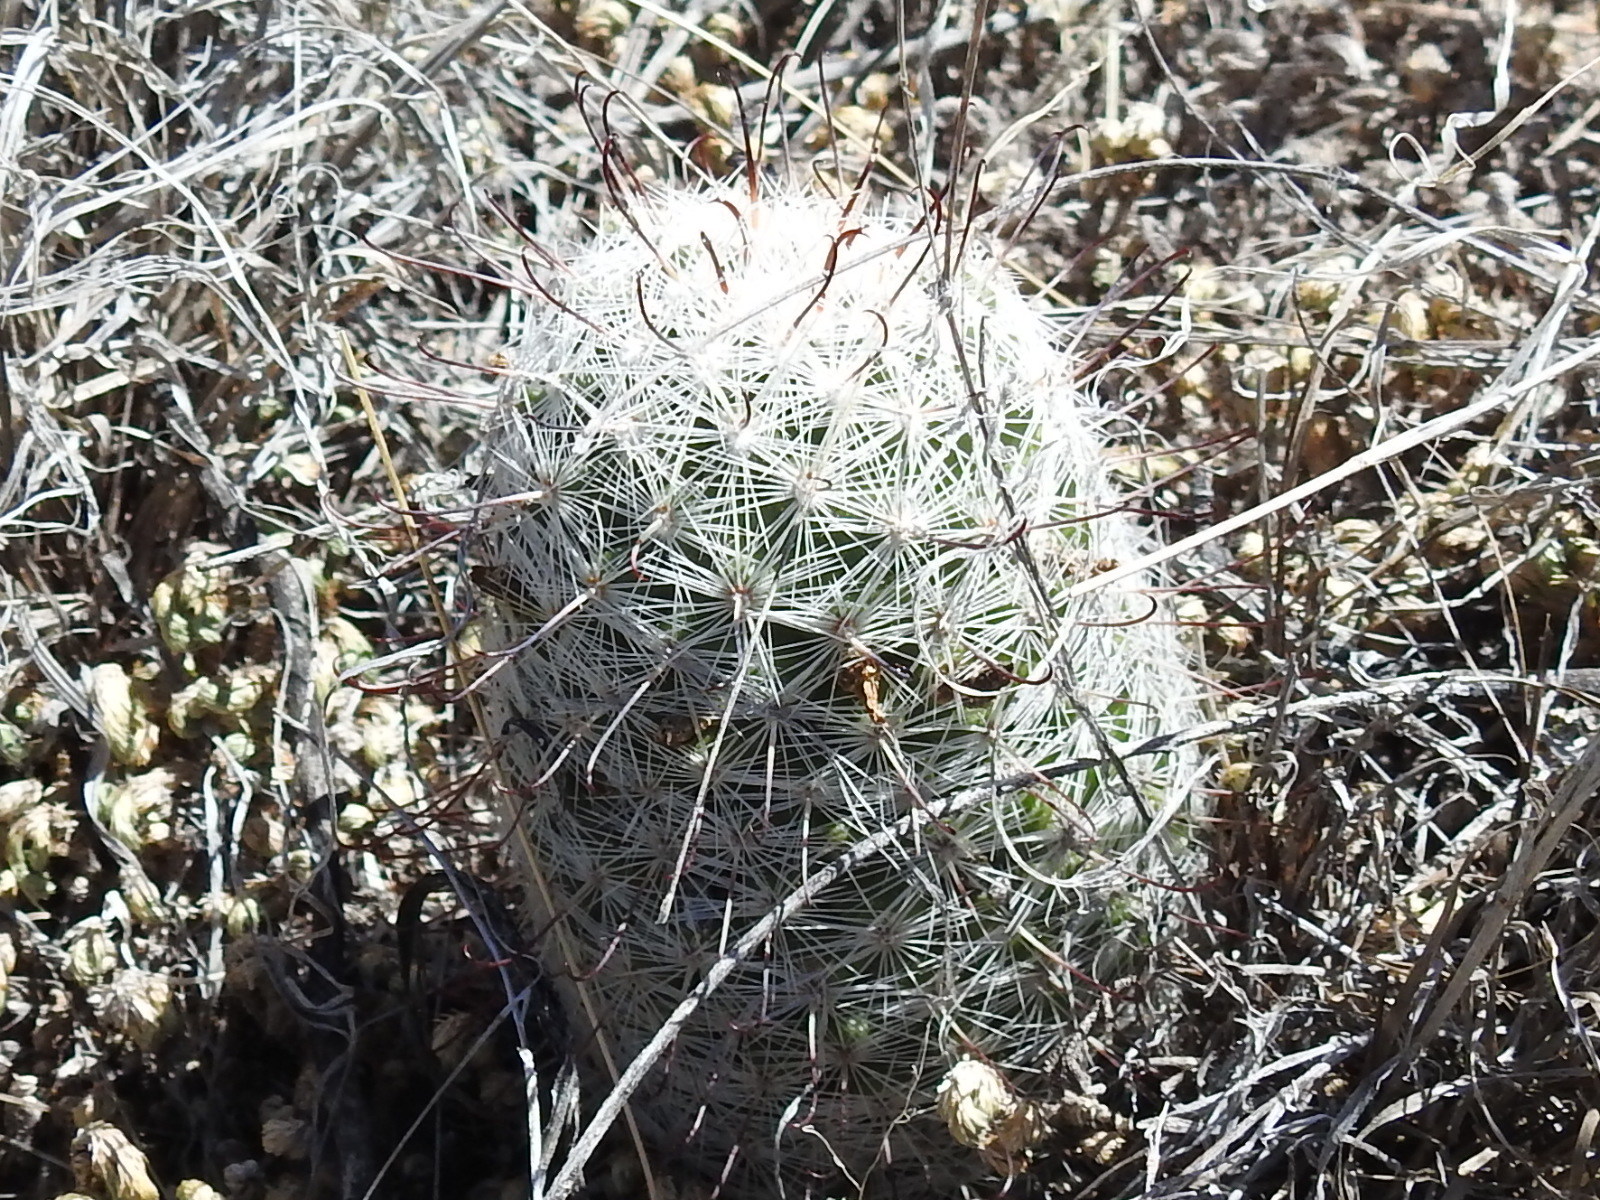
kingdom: Plantae
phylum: Tracheophyta
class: Magnoliopsida
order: Caryophyllales
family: Cactaceae
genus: Cochemiea
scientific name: Cochemiea grahamii
